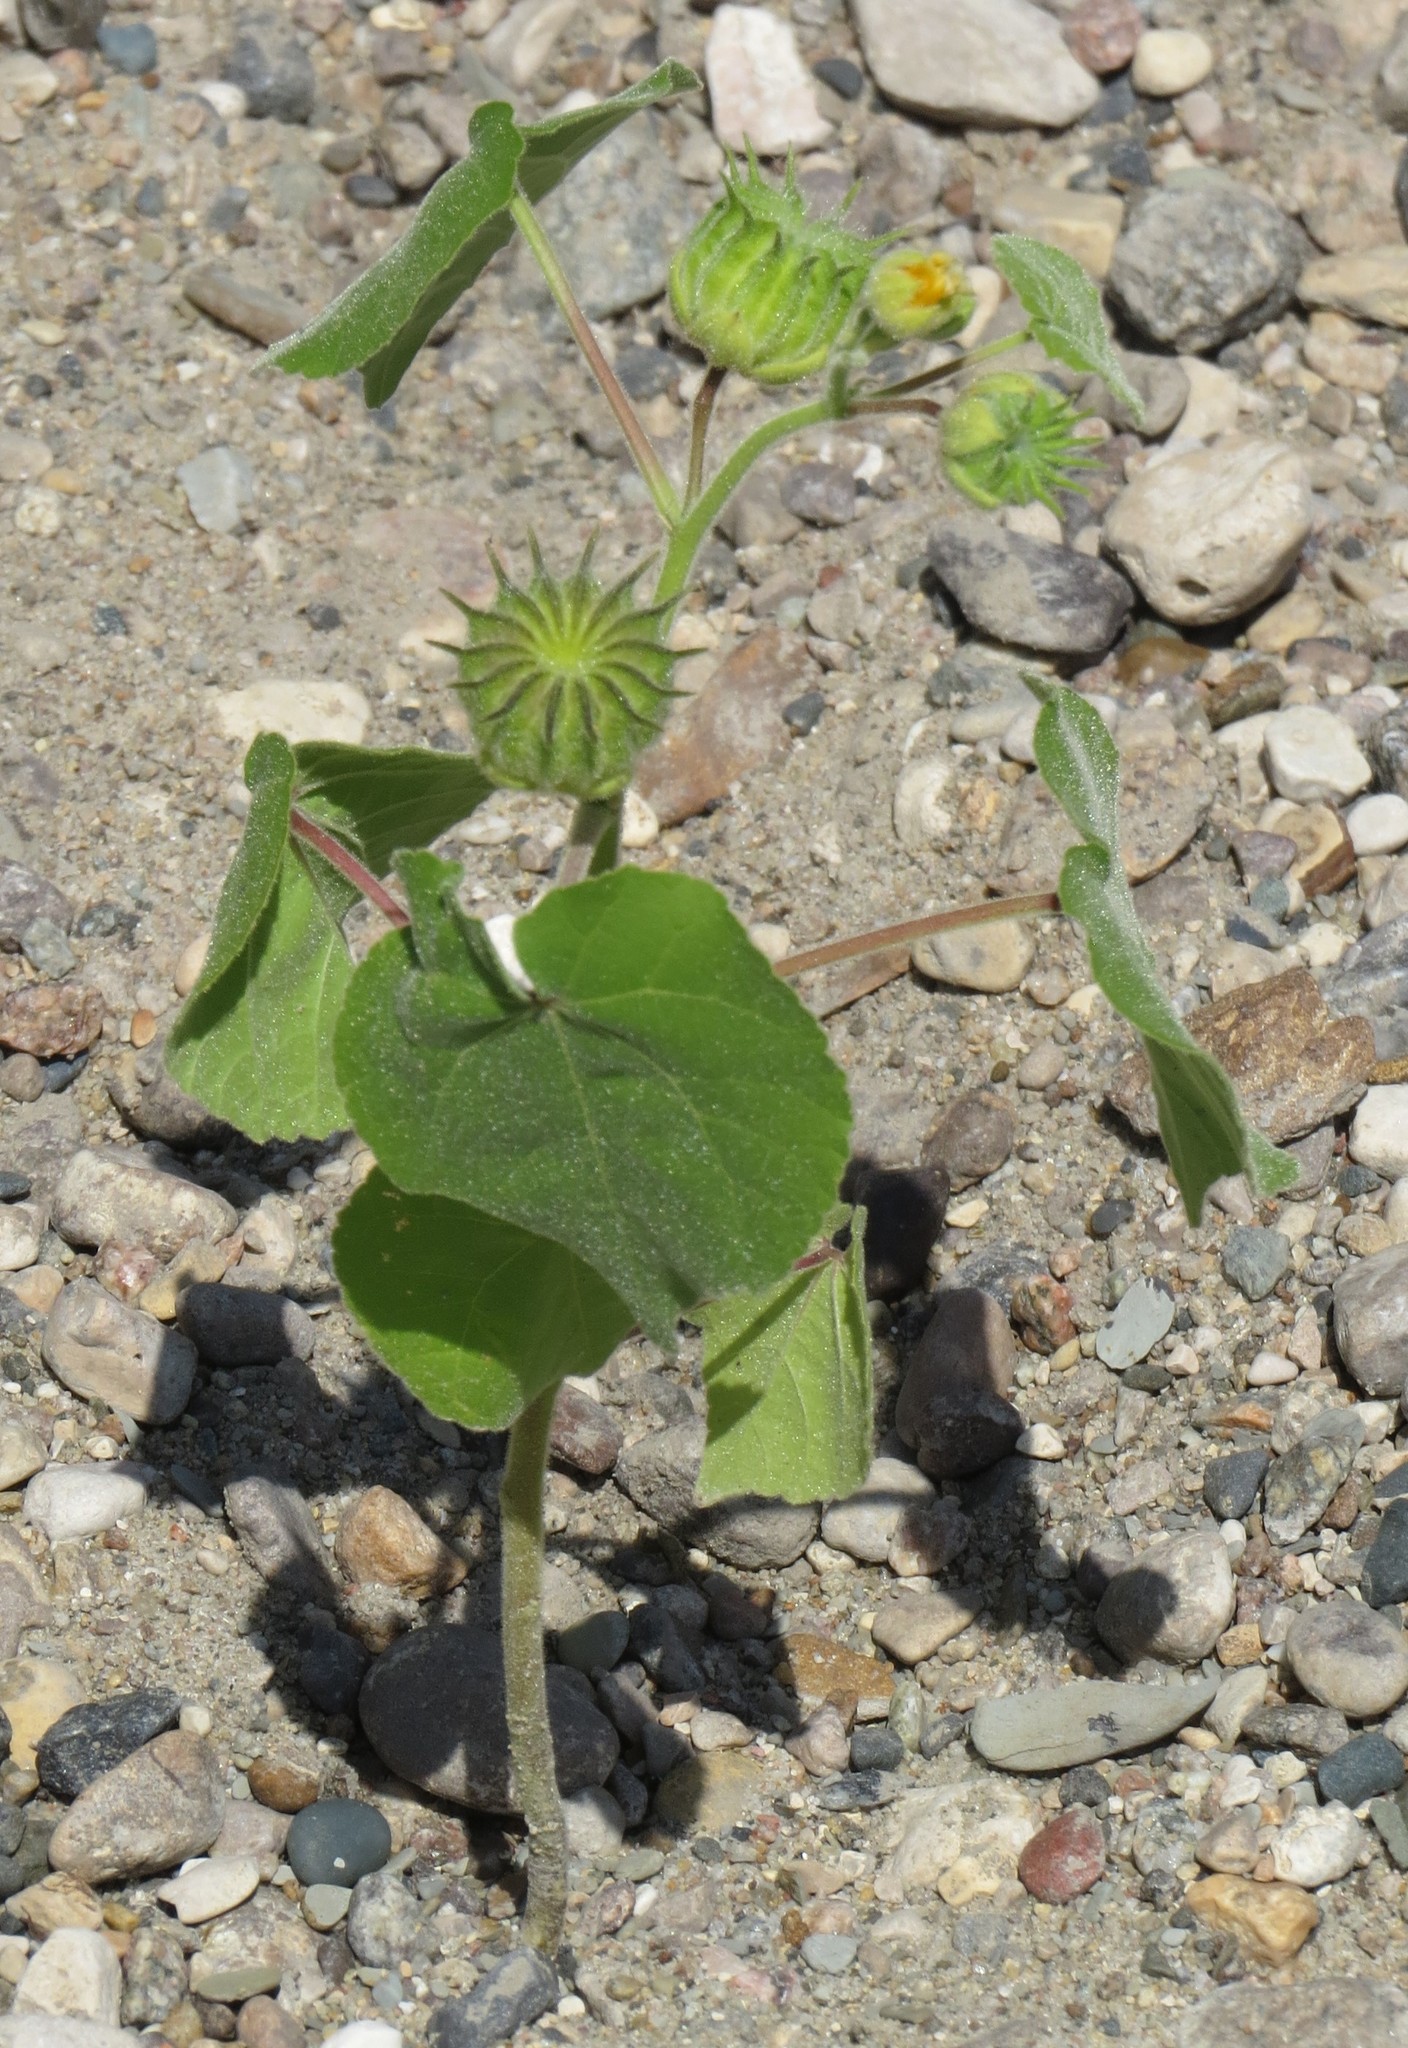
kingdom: Plantae
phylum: Tracheophyta
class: Magnoliopsida
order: Malvales
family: Malvaceae
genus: Abutilon
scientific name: Abutilon theophrasti
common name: Velvetleaf
